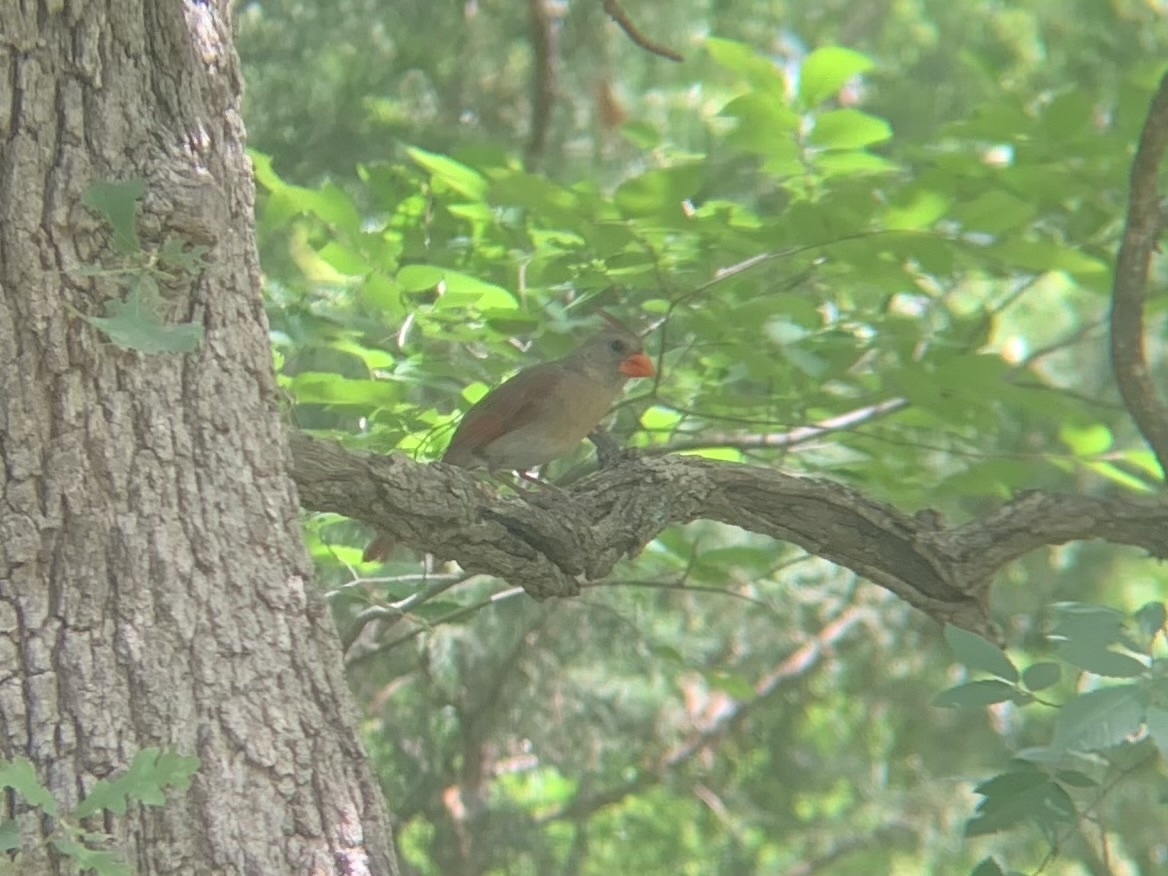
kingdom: Animalia
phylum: Chordata
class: Aves
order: Passeriformes
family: Cardinalidae
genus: Cardinalis
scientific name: Cardinalis cardinalis
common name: Northern cardinal
